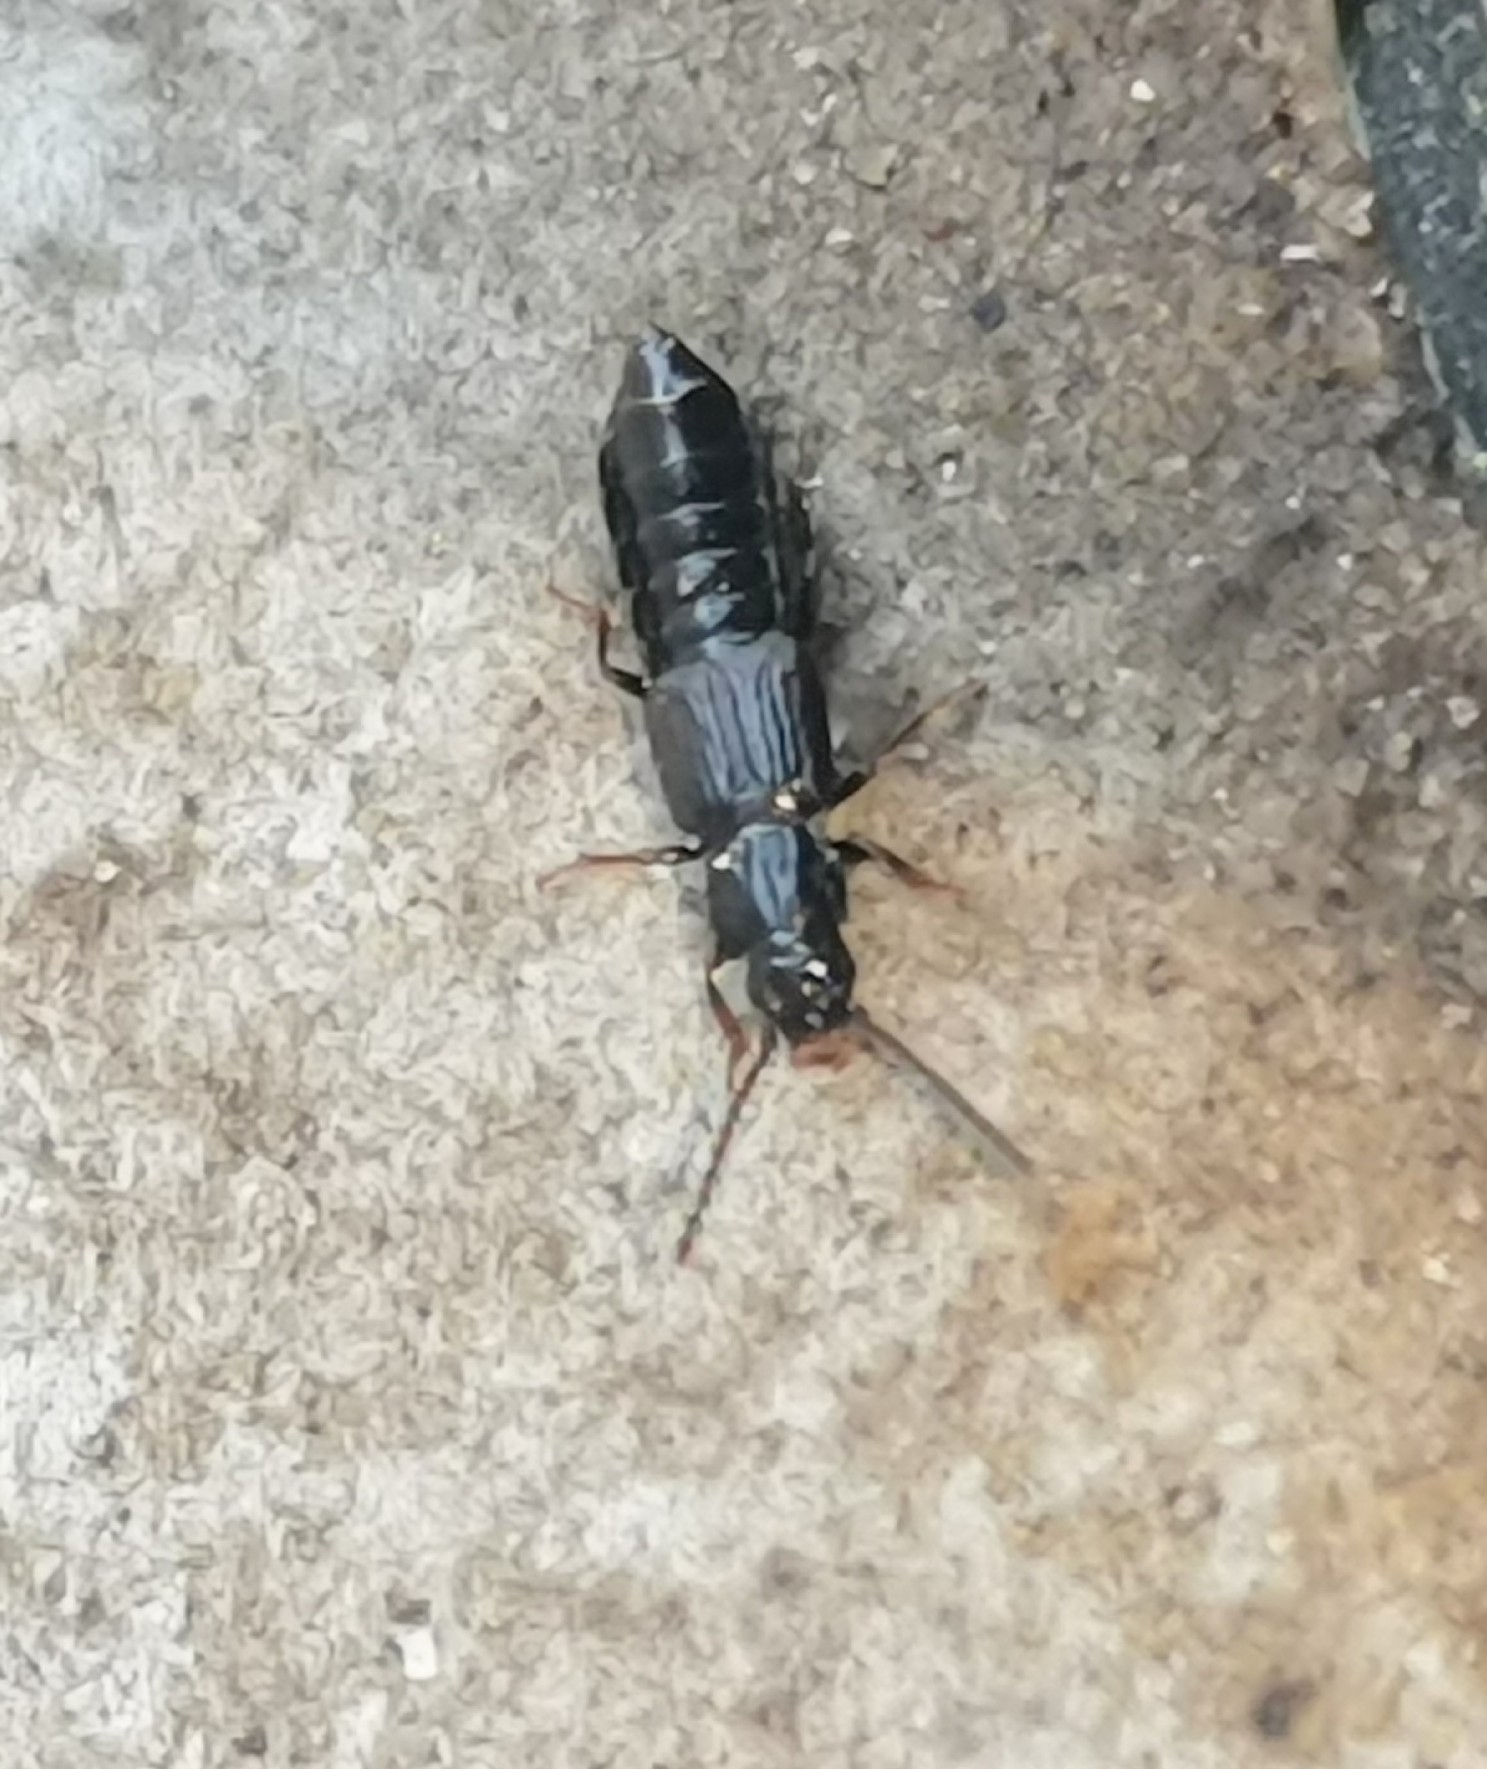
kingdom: Animalia
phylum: Arthropoda
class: Insecta
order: Coleoptera
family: Staphylinidae
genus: Coprophilus
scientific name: Coprophilus striatulus
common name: Rove beetle
